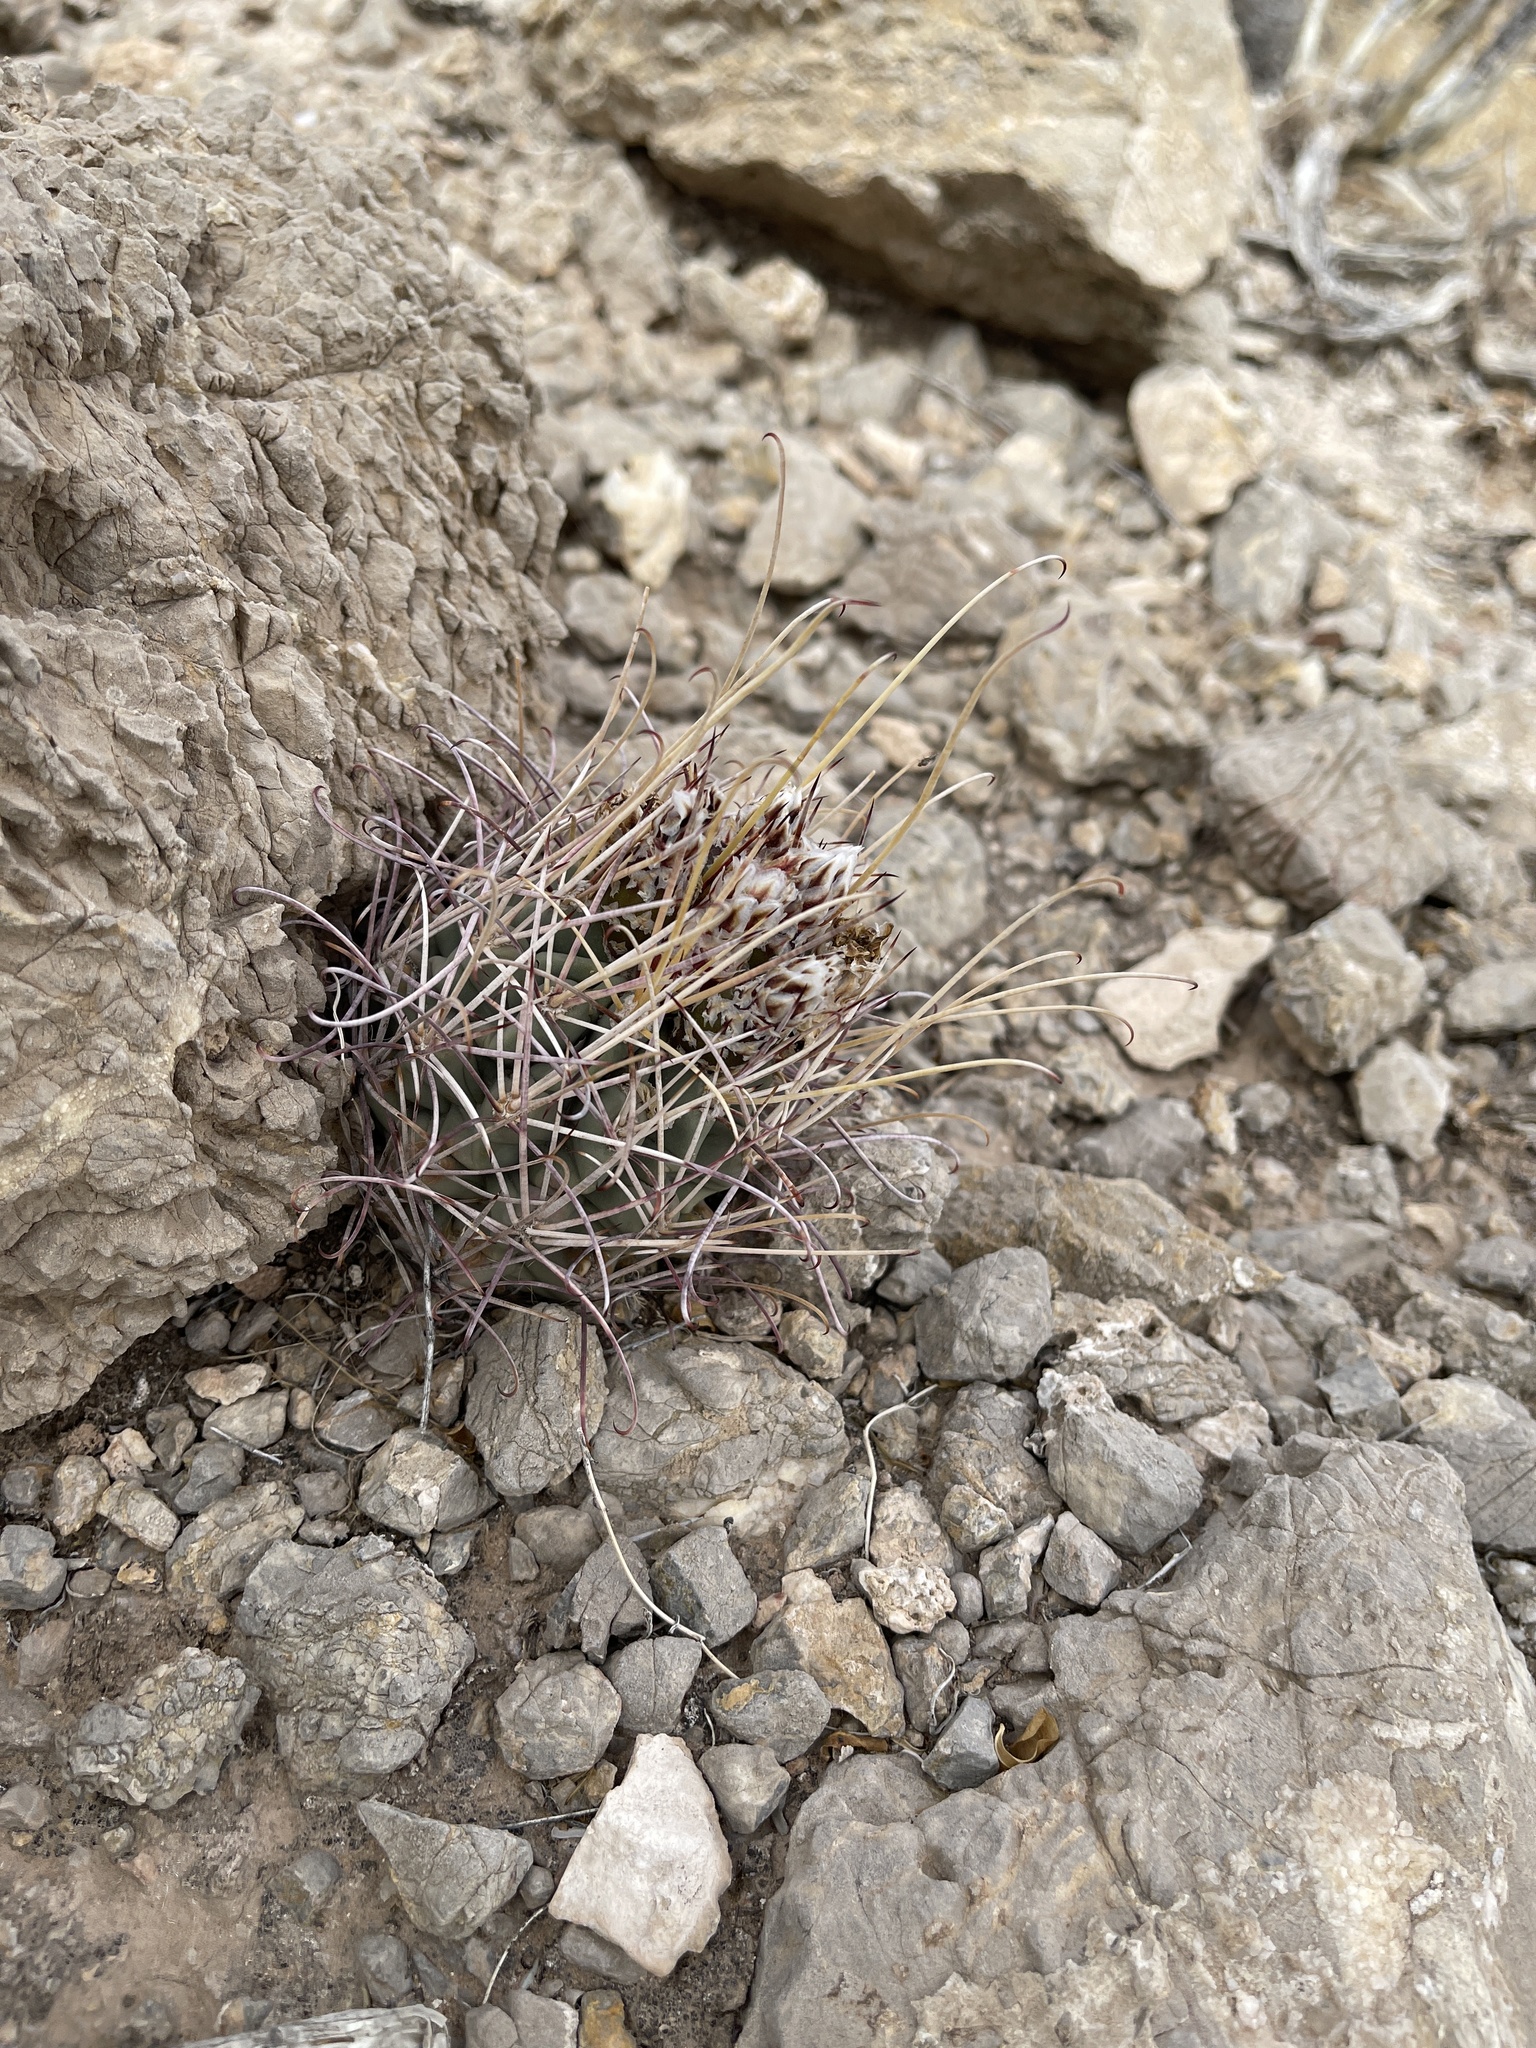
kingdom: Plantae
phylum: Tracheophyta
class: Magnoliopsida
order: Caryophyllales
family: Cactaceae
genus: Ferocactus
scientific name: Ferocactus uncinatus
